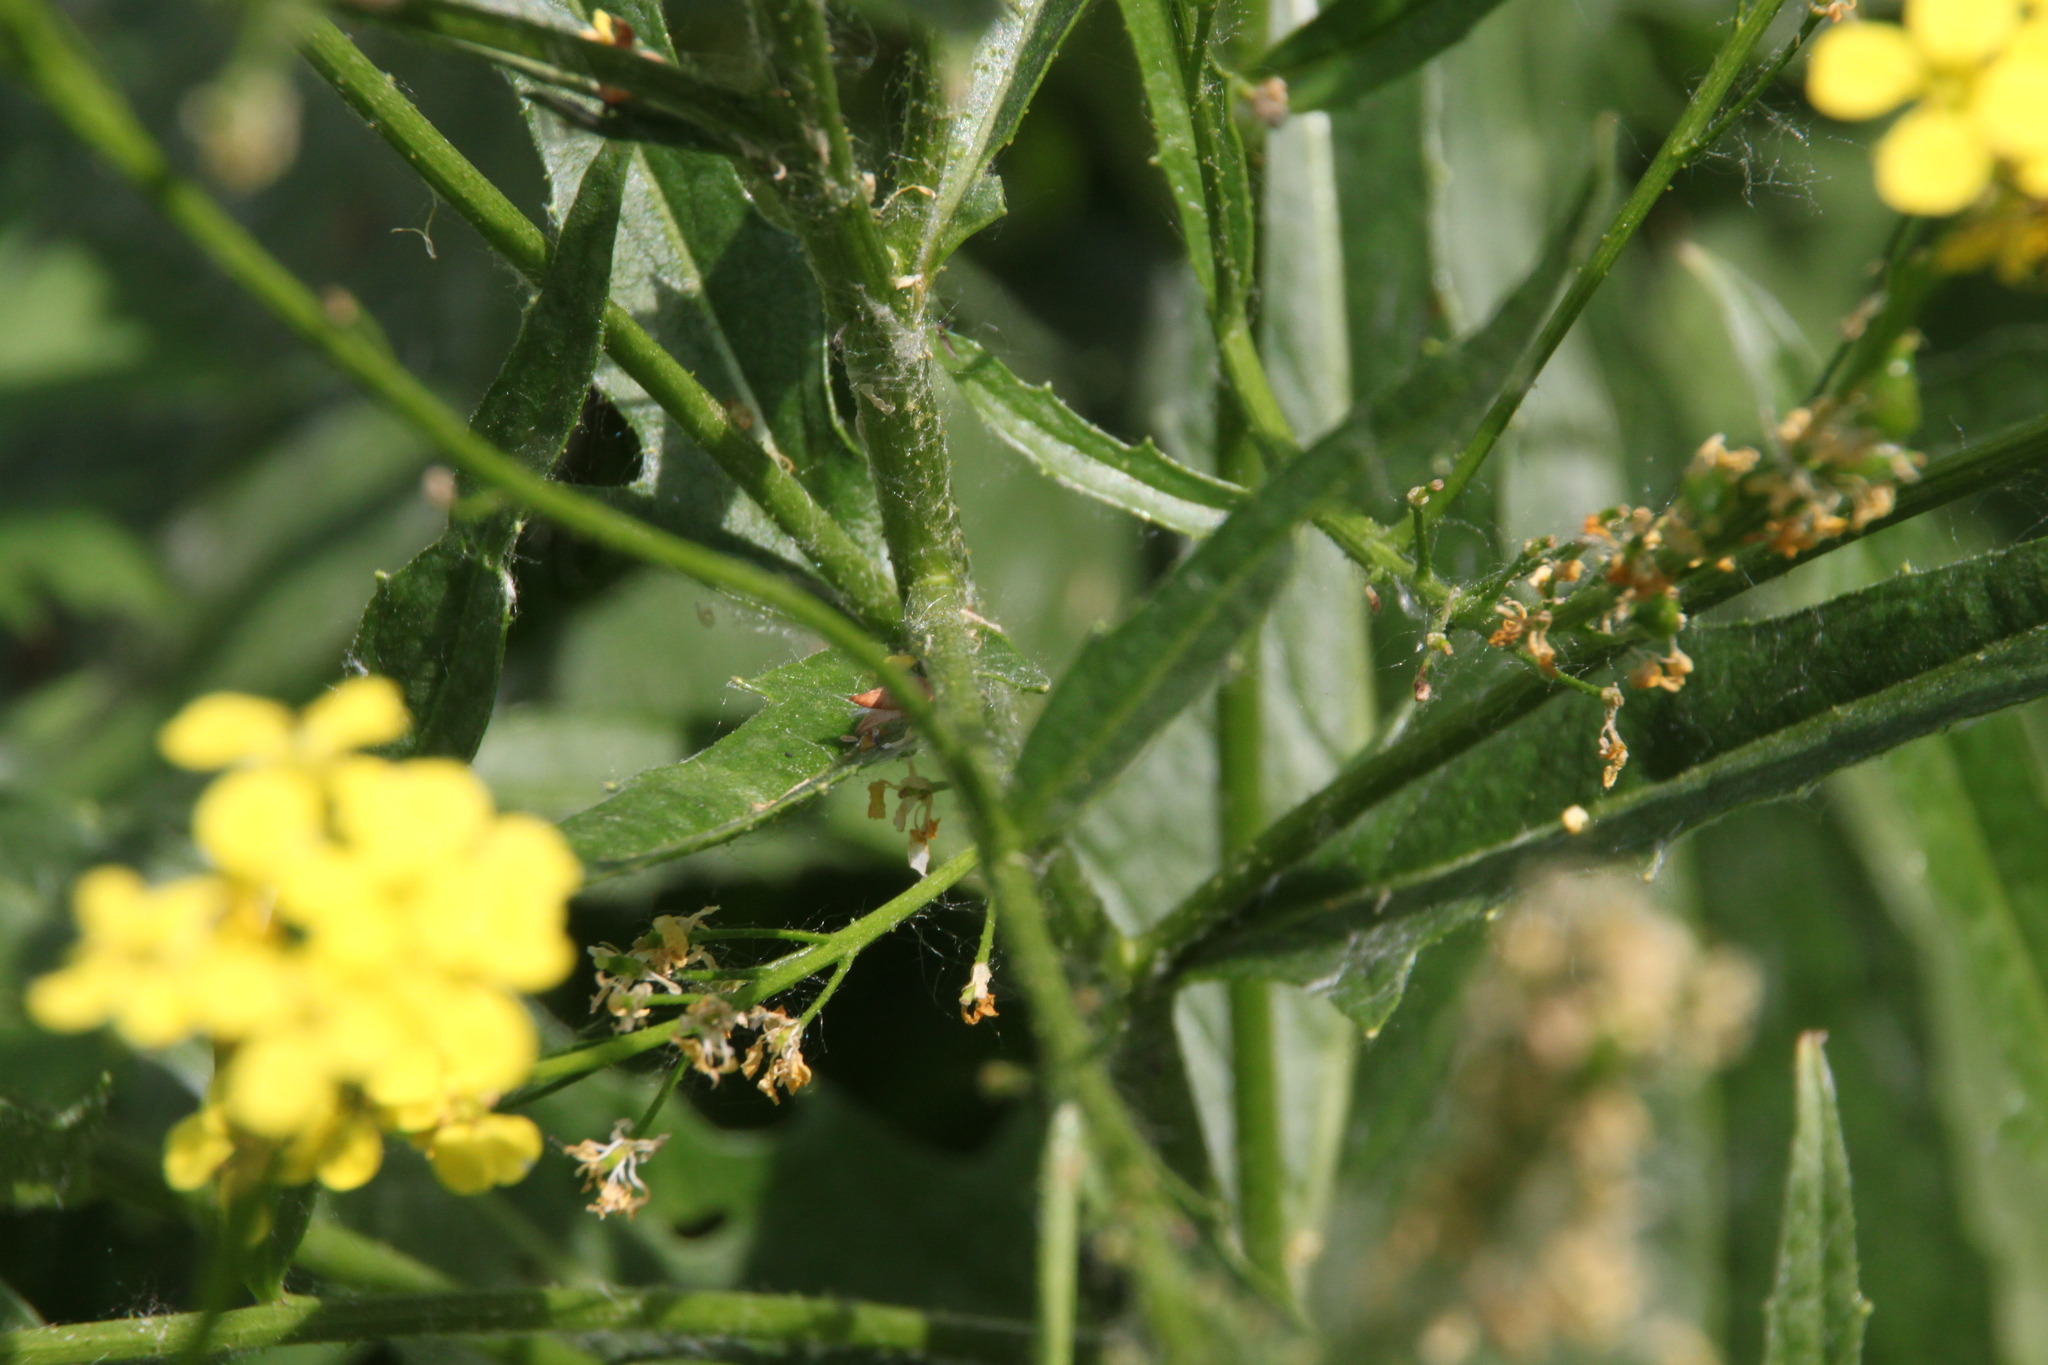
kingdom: Plantae
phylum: Tracheophyta
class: Magnoliopsida
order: Brassicales
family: Brassicaceae
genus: Bunias
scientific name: Bunias orientalis
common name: Warty-cabbage
